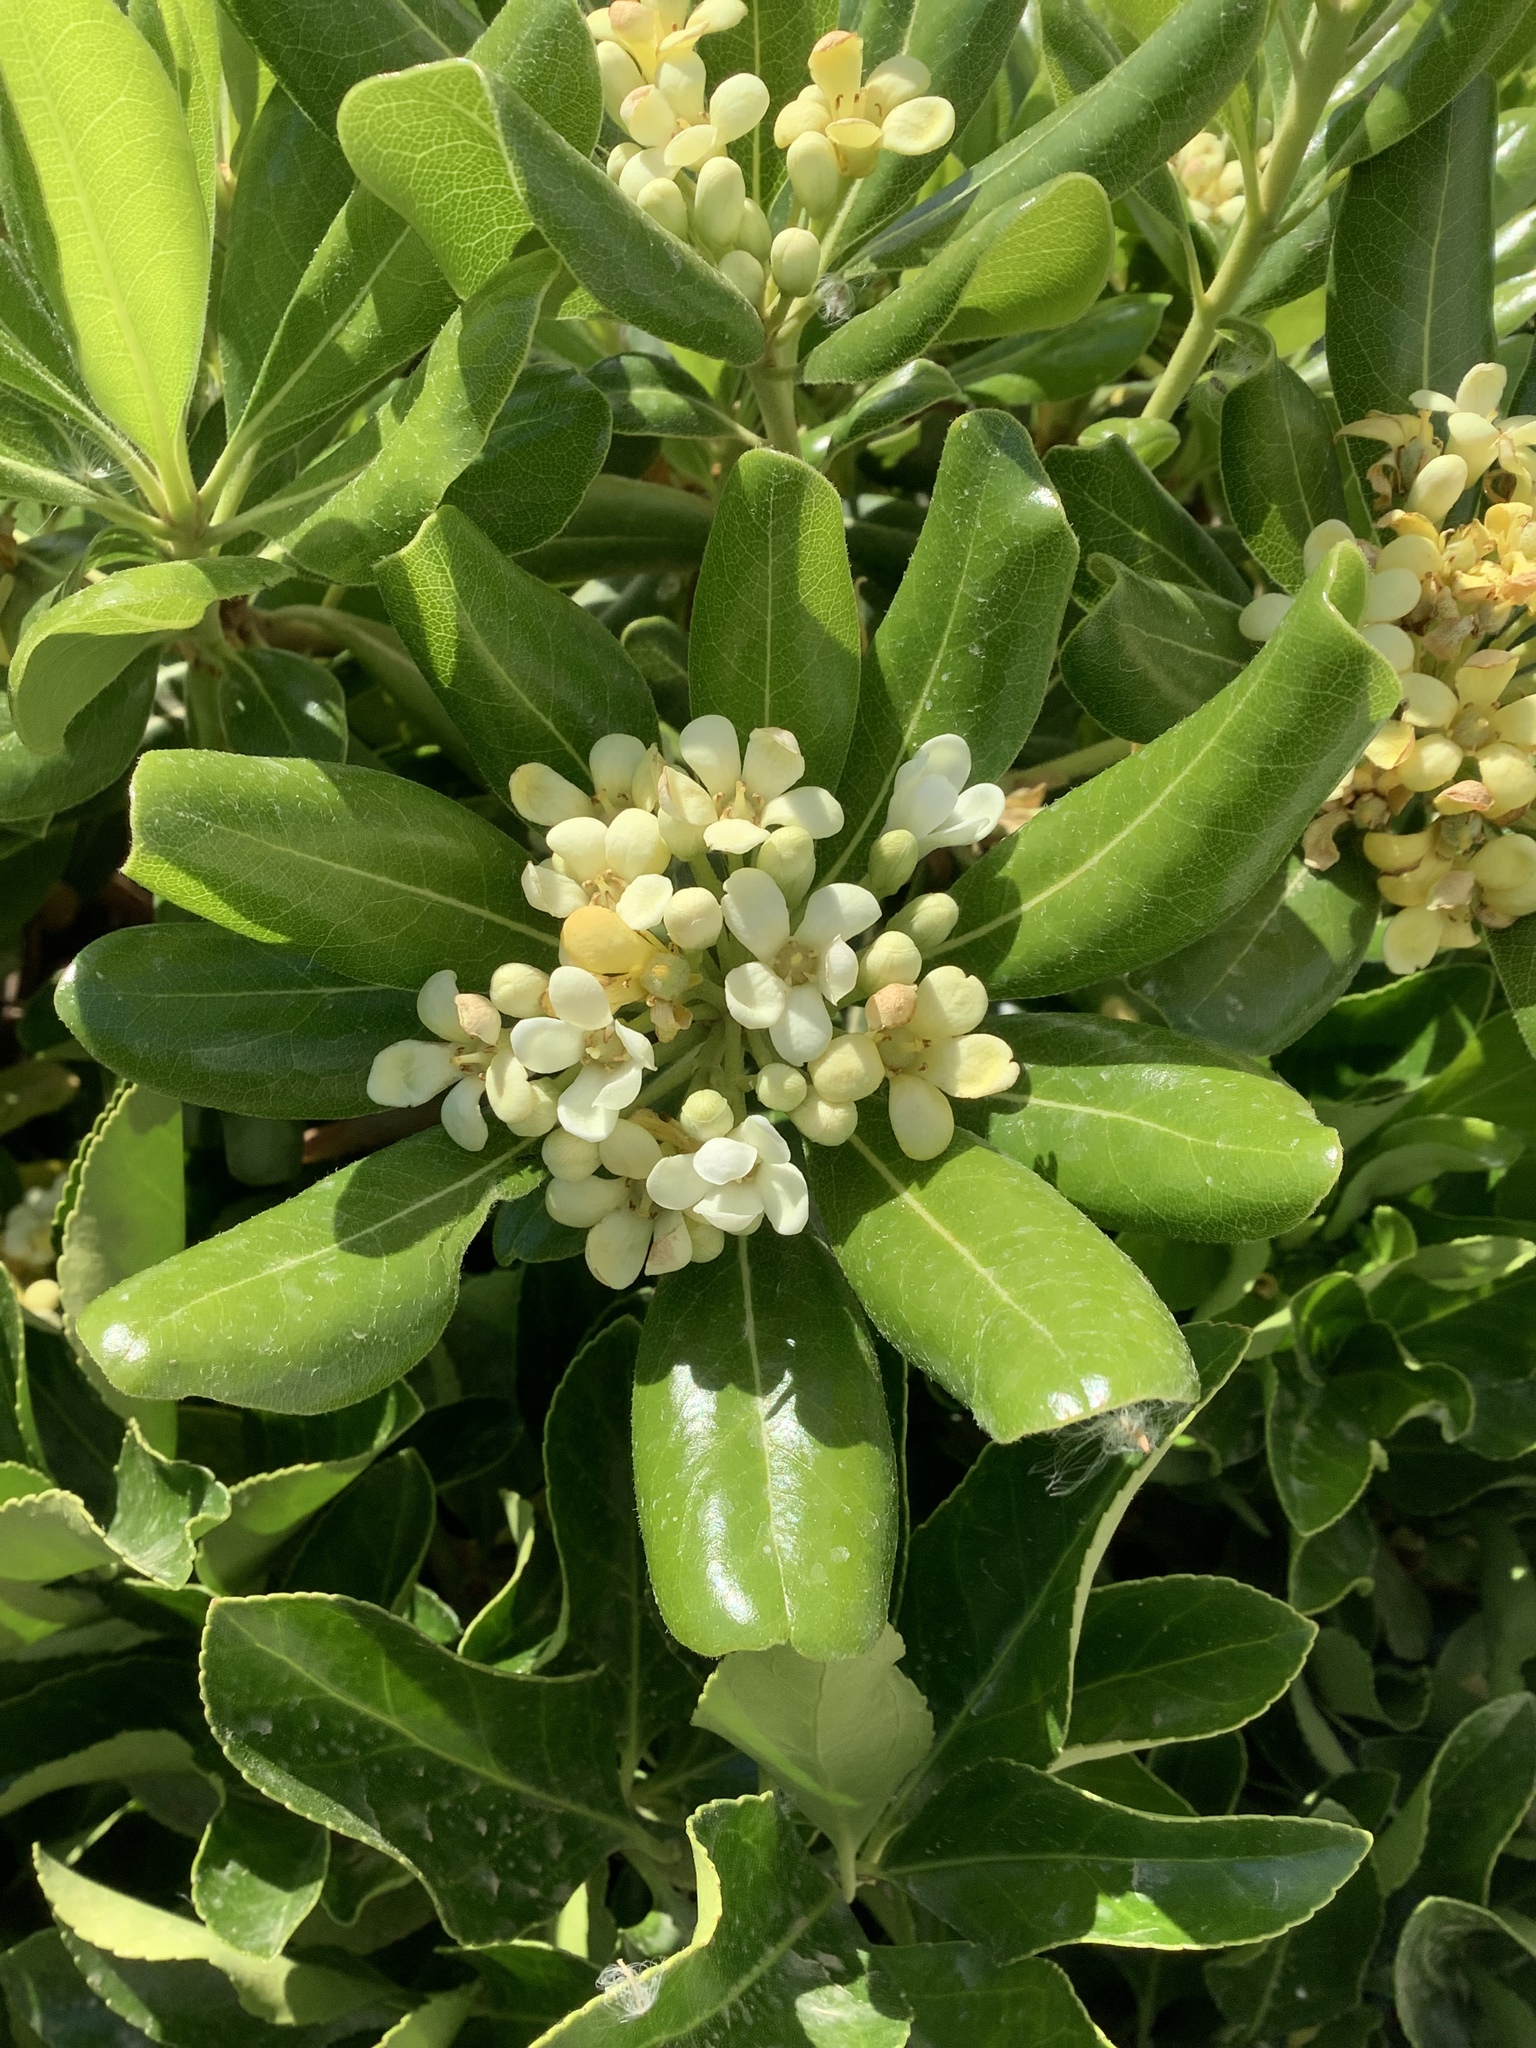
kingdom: Plantae
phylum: Tracheophyta
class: Magnoliopsida
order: Apiales
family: Pittosporaceae
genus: Pittosporum
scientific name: Pittosporum tobira
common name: Japanese cheesewood
